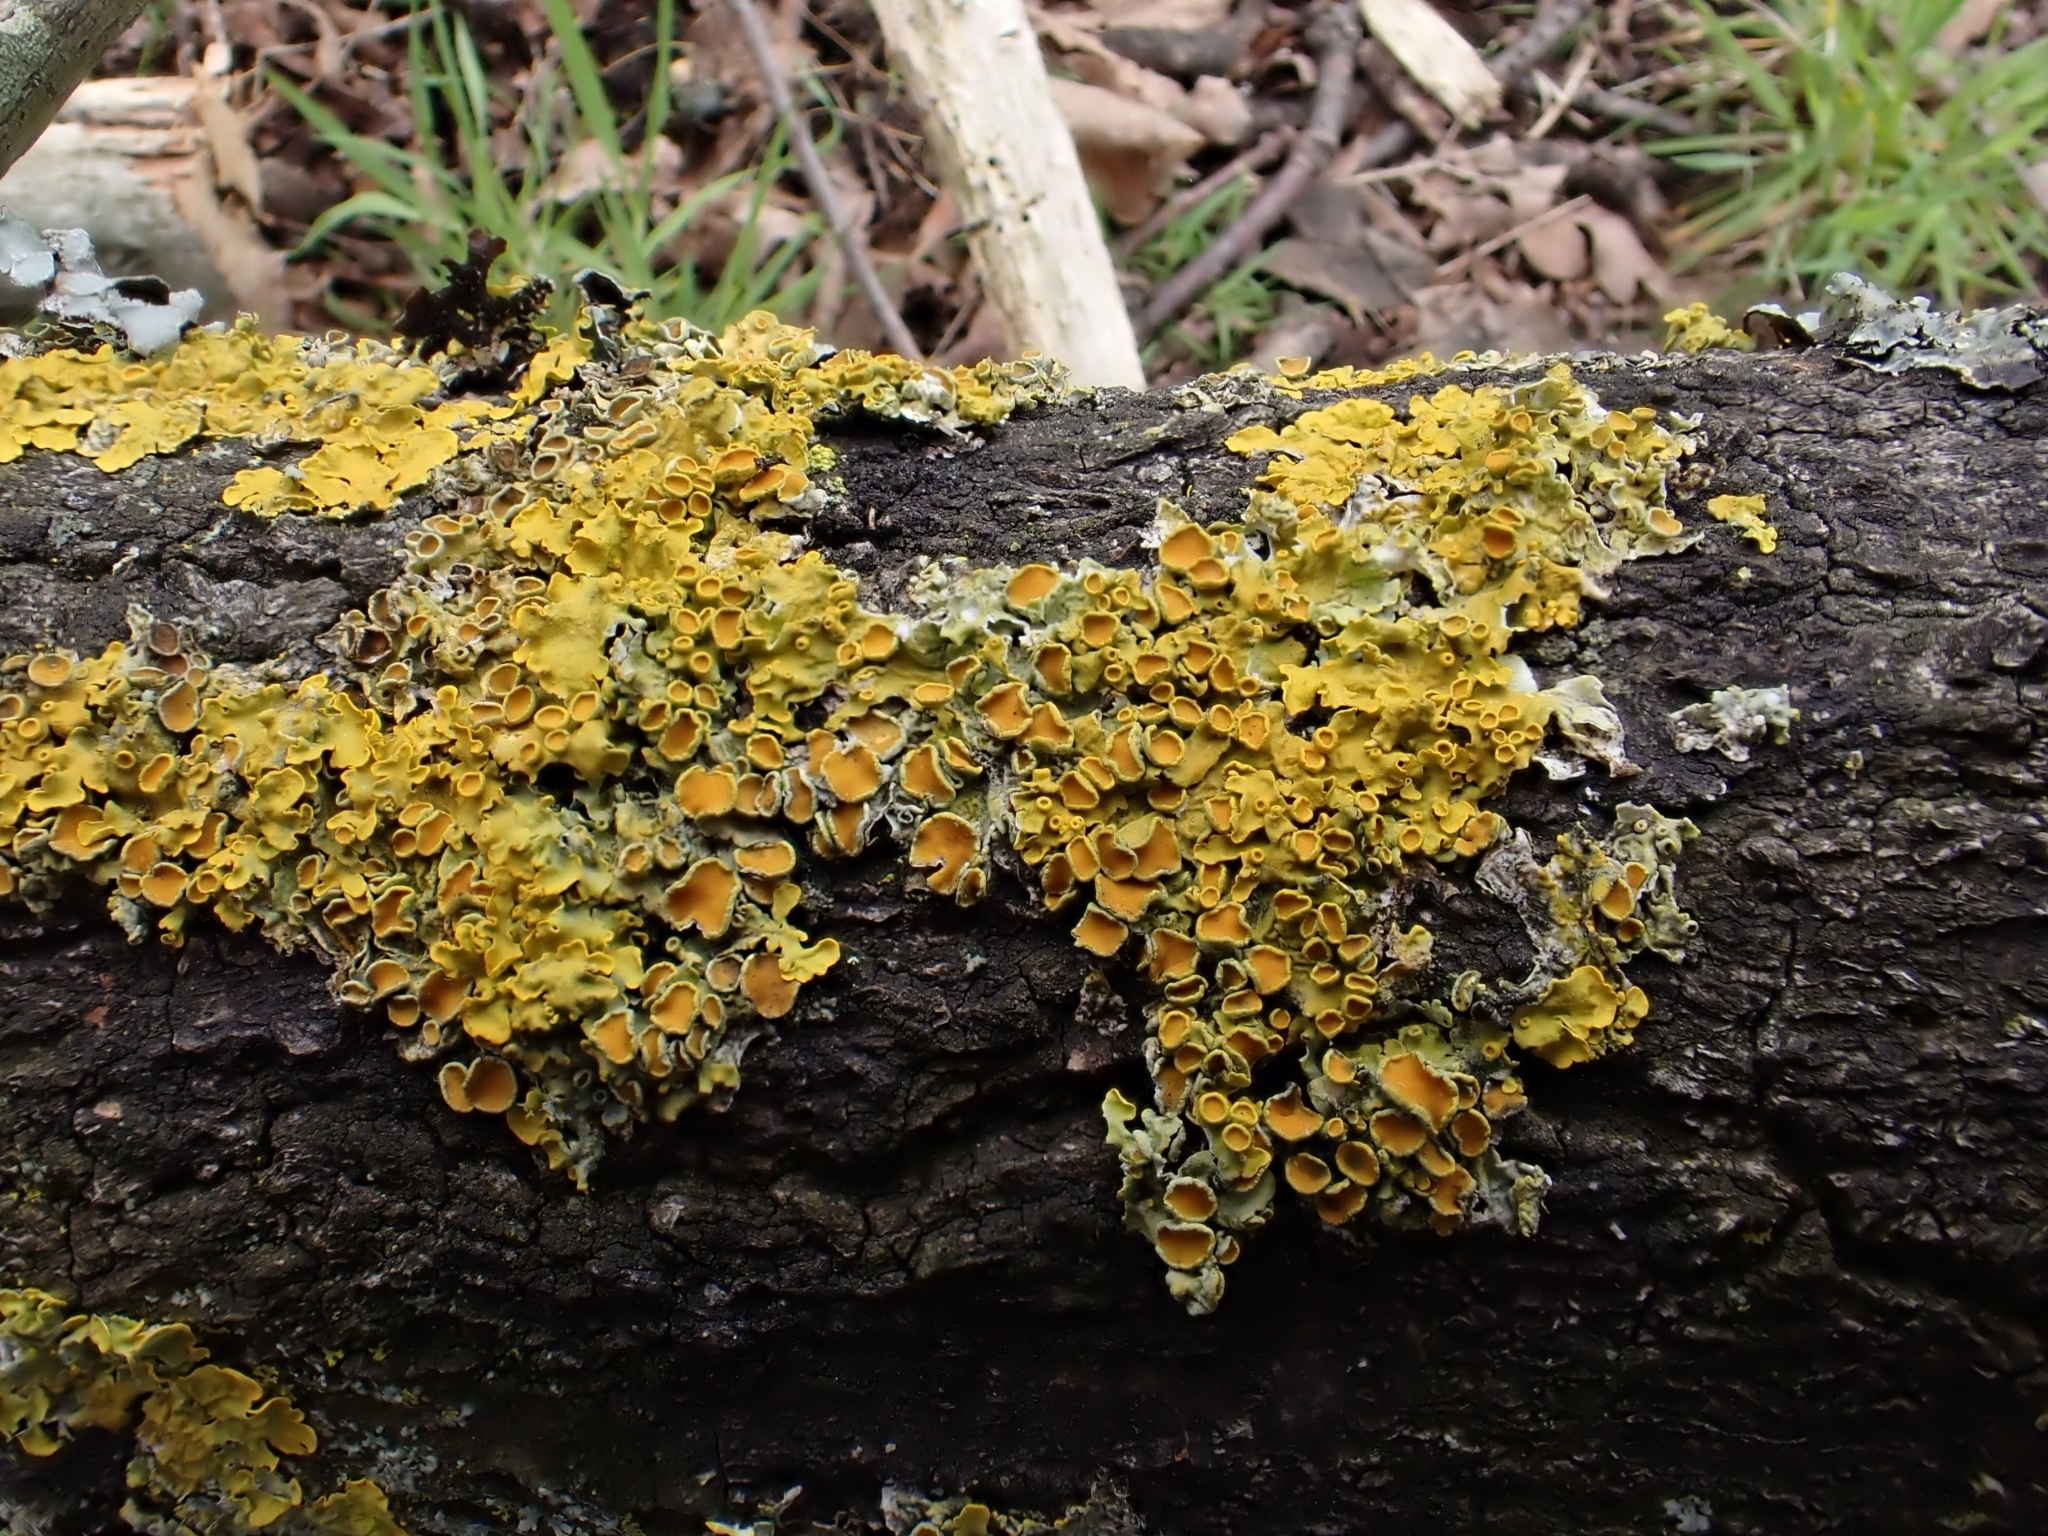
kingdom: Fungi
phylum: Ascomycota
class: Lecanoromycetes
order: Teloschistales
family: Teloschistaceae
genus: Xanthoria
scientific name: Xanthoria parietina
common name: Common orange lichen
